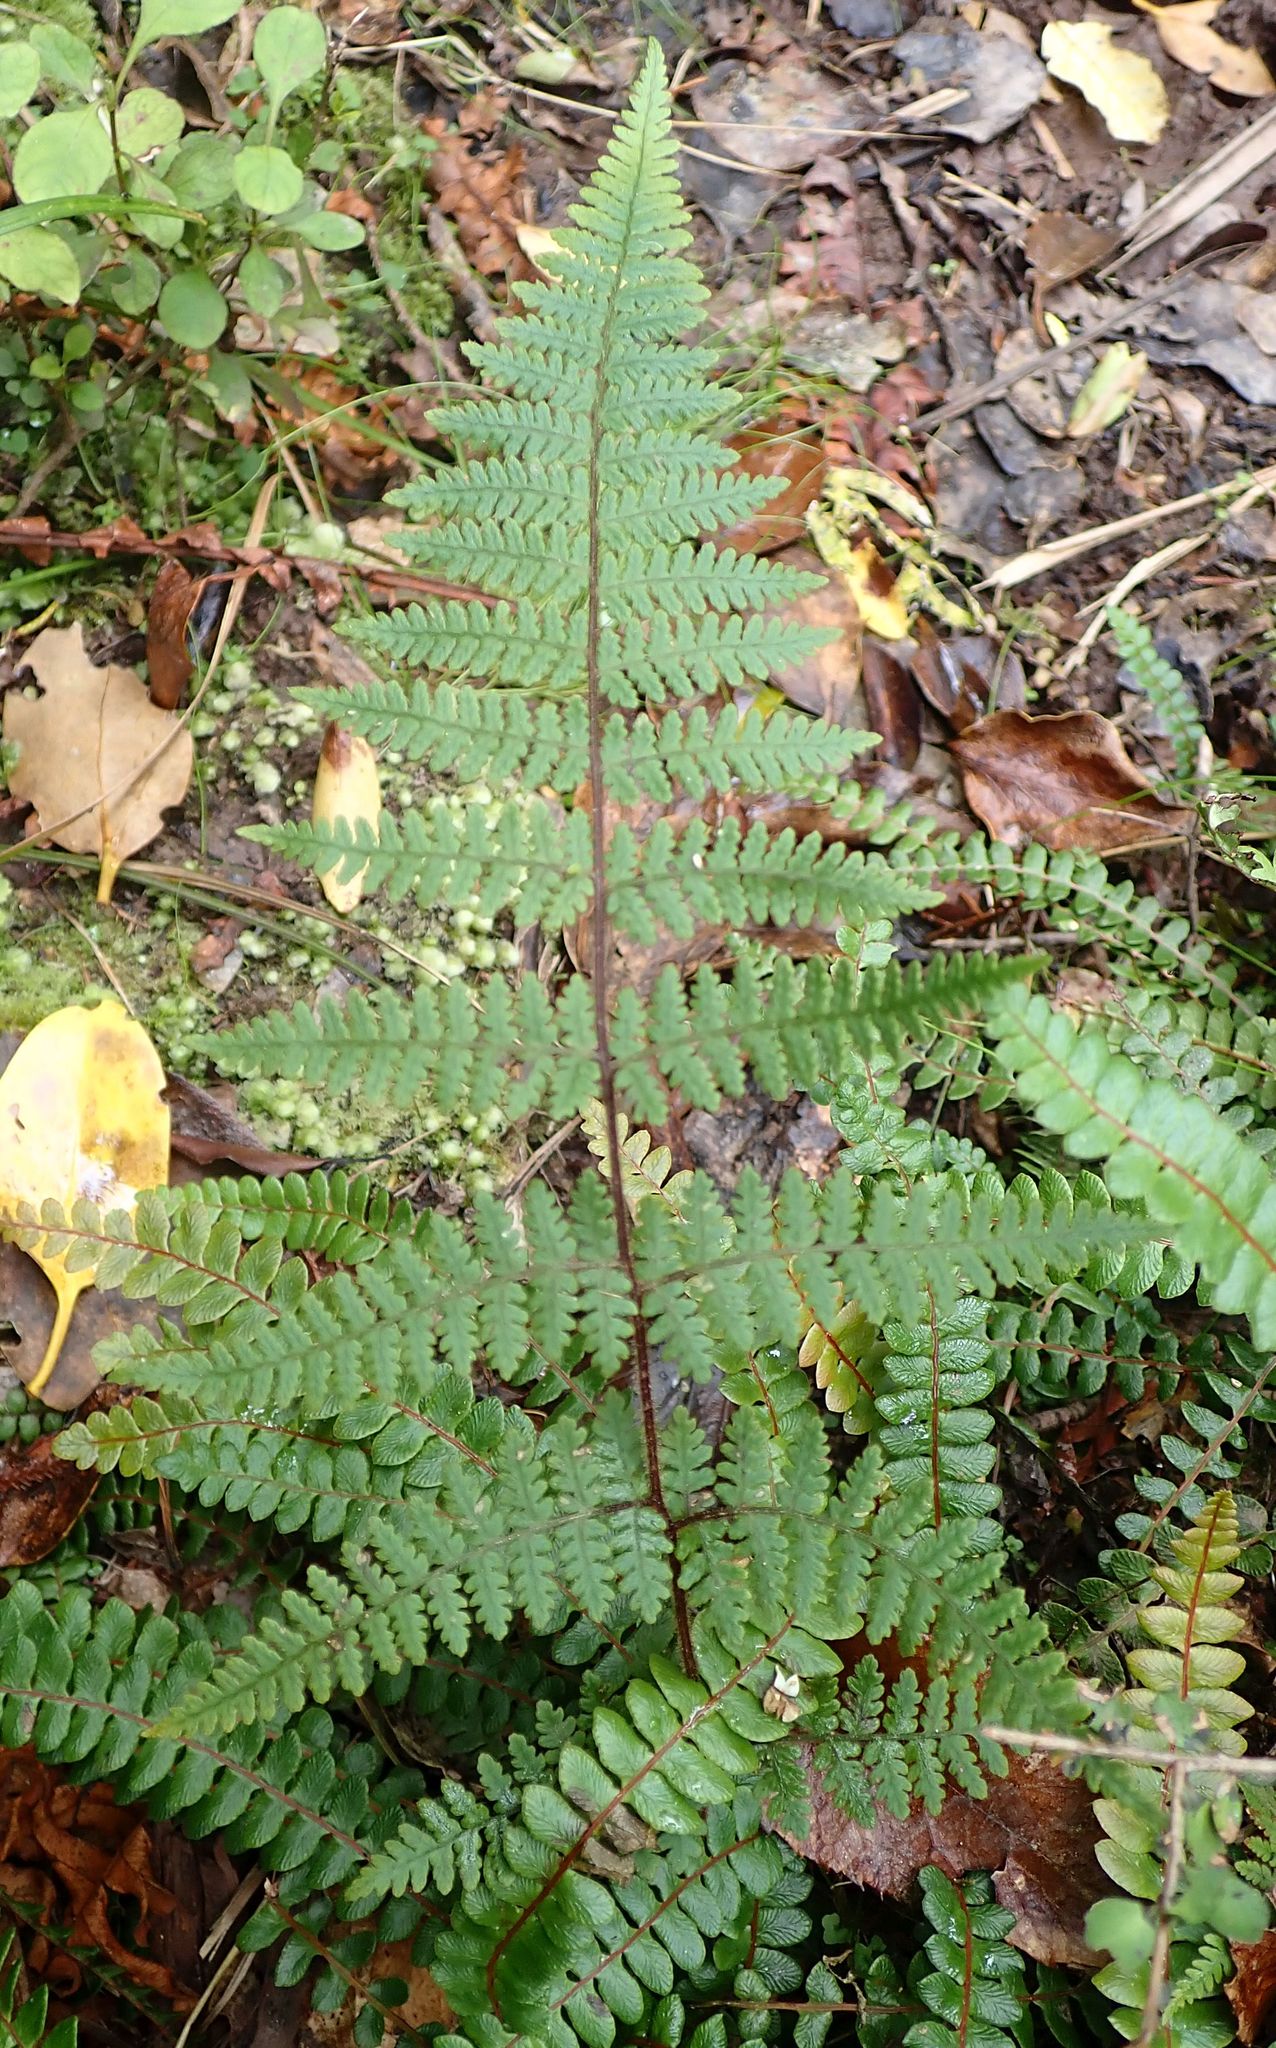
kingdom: Plantae
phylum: Tracheophyta
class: Polypodiopsida
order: Polypodiales
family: Dryopteridaceae
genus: Lastreopsis
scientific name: Lastreopsis velutina
